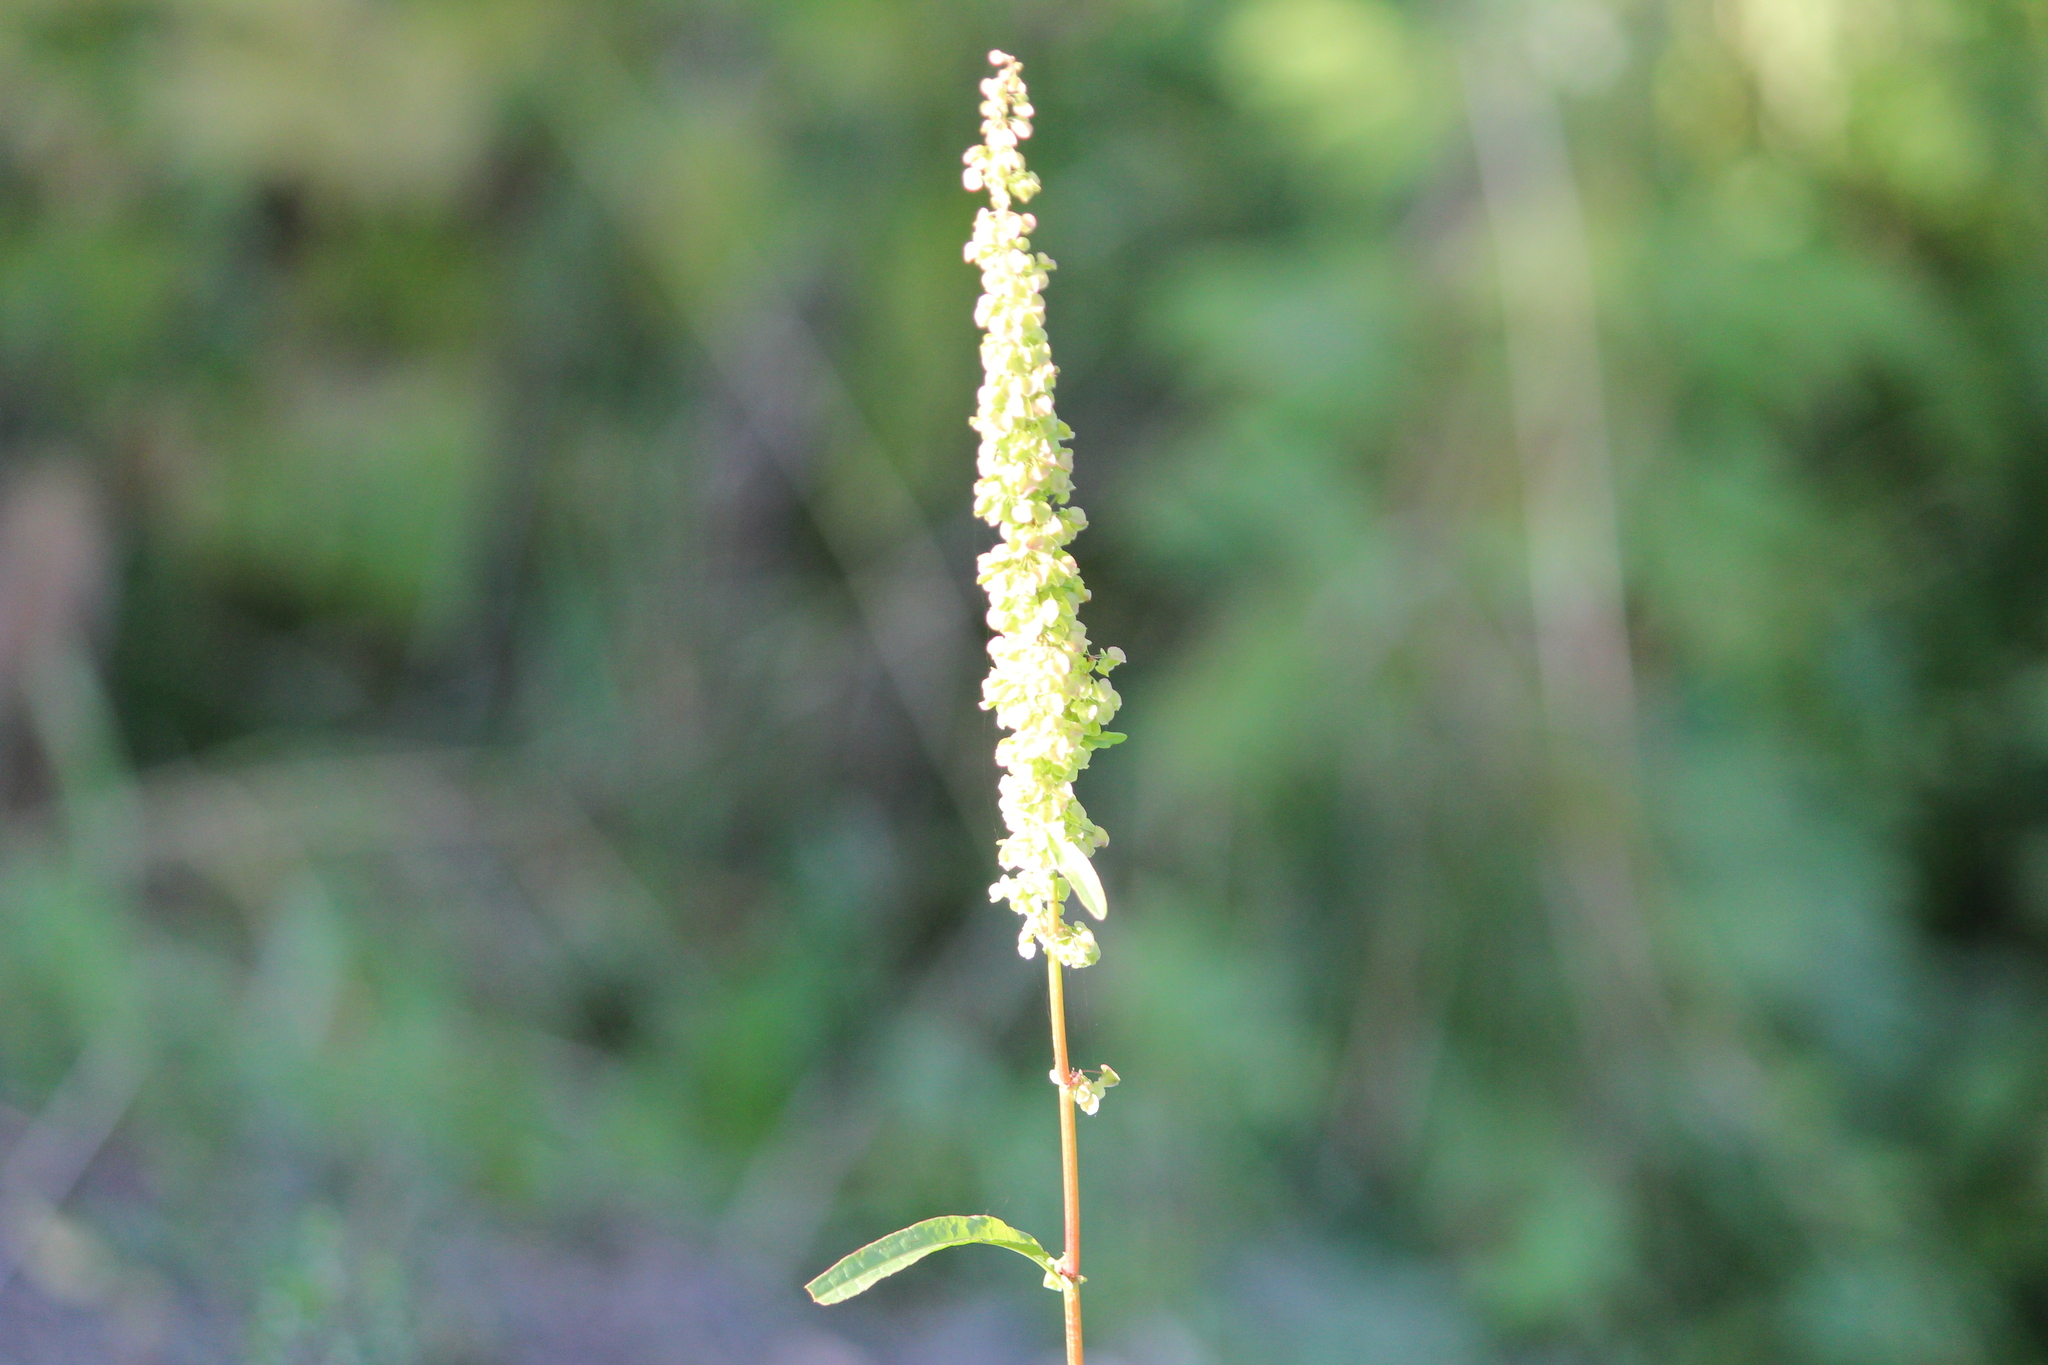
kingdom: Plantae
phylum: Tracheophyta
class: Magnoliopsida
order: Caryophyllales
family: Polygonaceae
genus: Rumex
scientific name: Rumex pseudonatronatus
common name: Field dock
